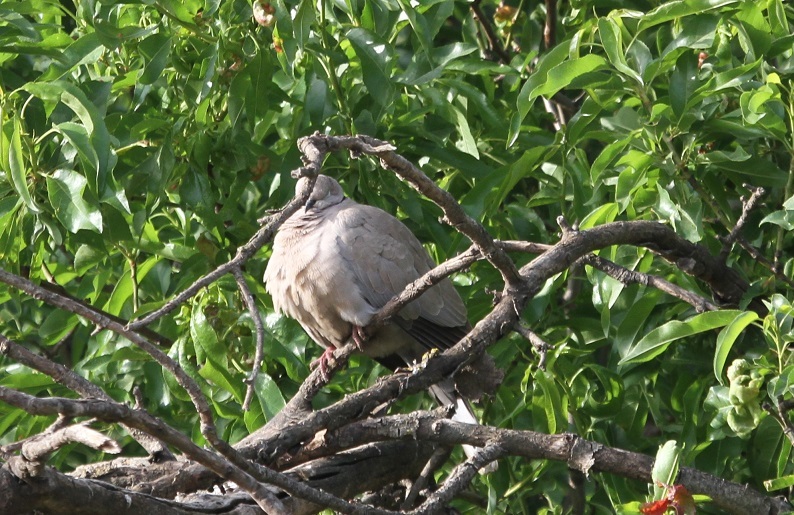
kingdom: Animalia
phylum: Chordata
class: Aves
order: Columbiformes
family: Columbidae
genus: Streptopelia
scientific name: Streptopelia decaocto
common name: Eurasian collared dove
